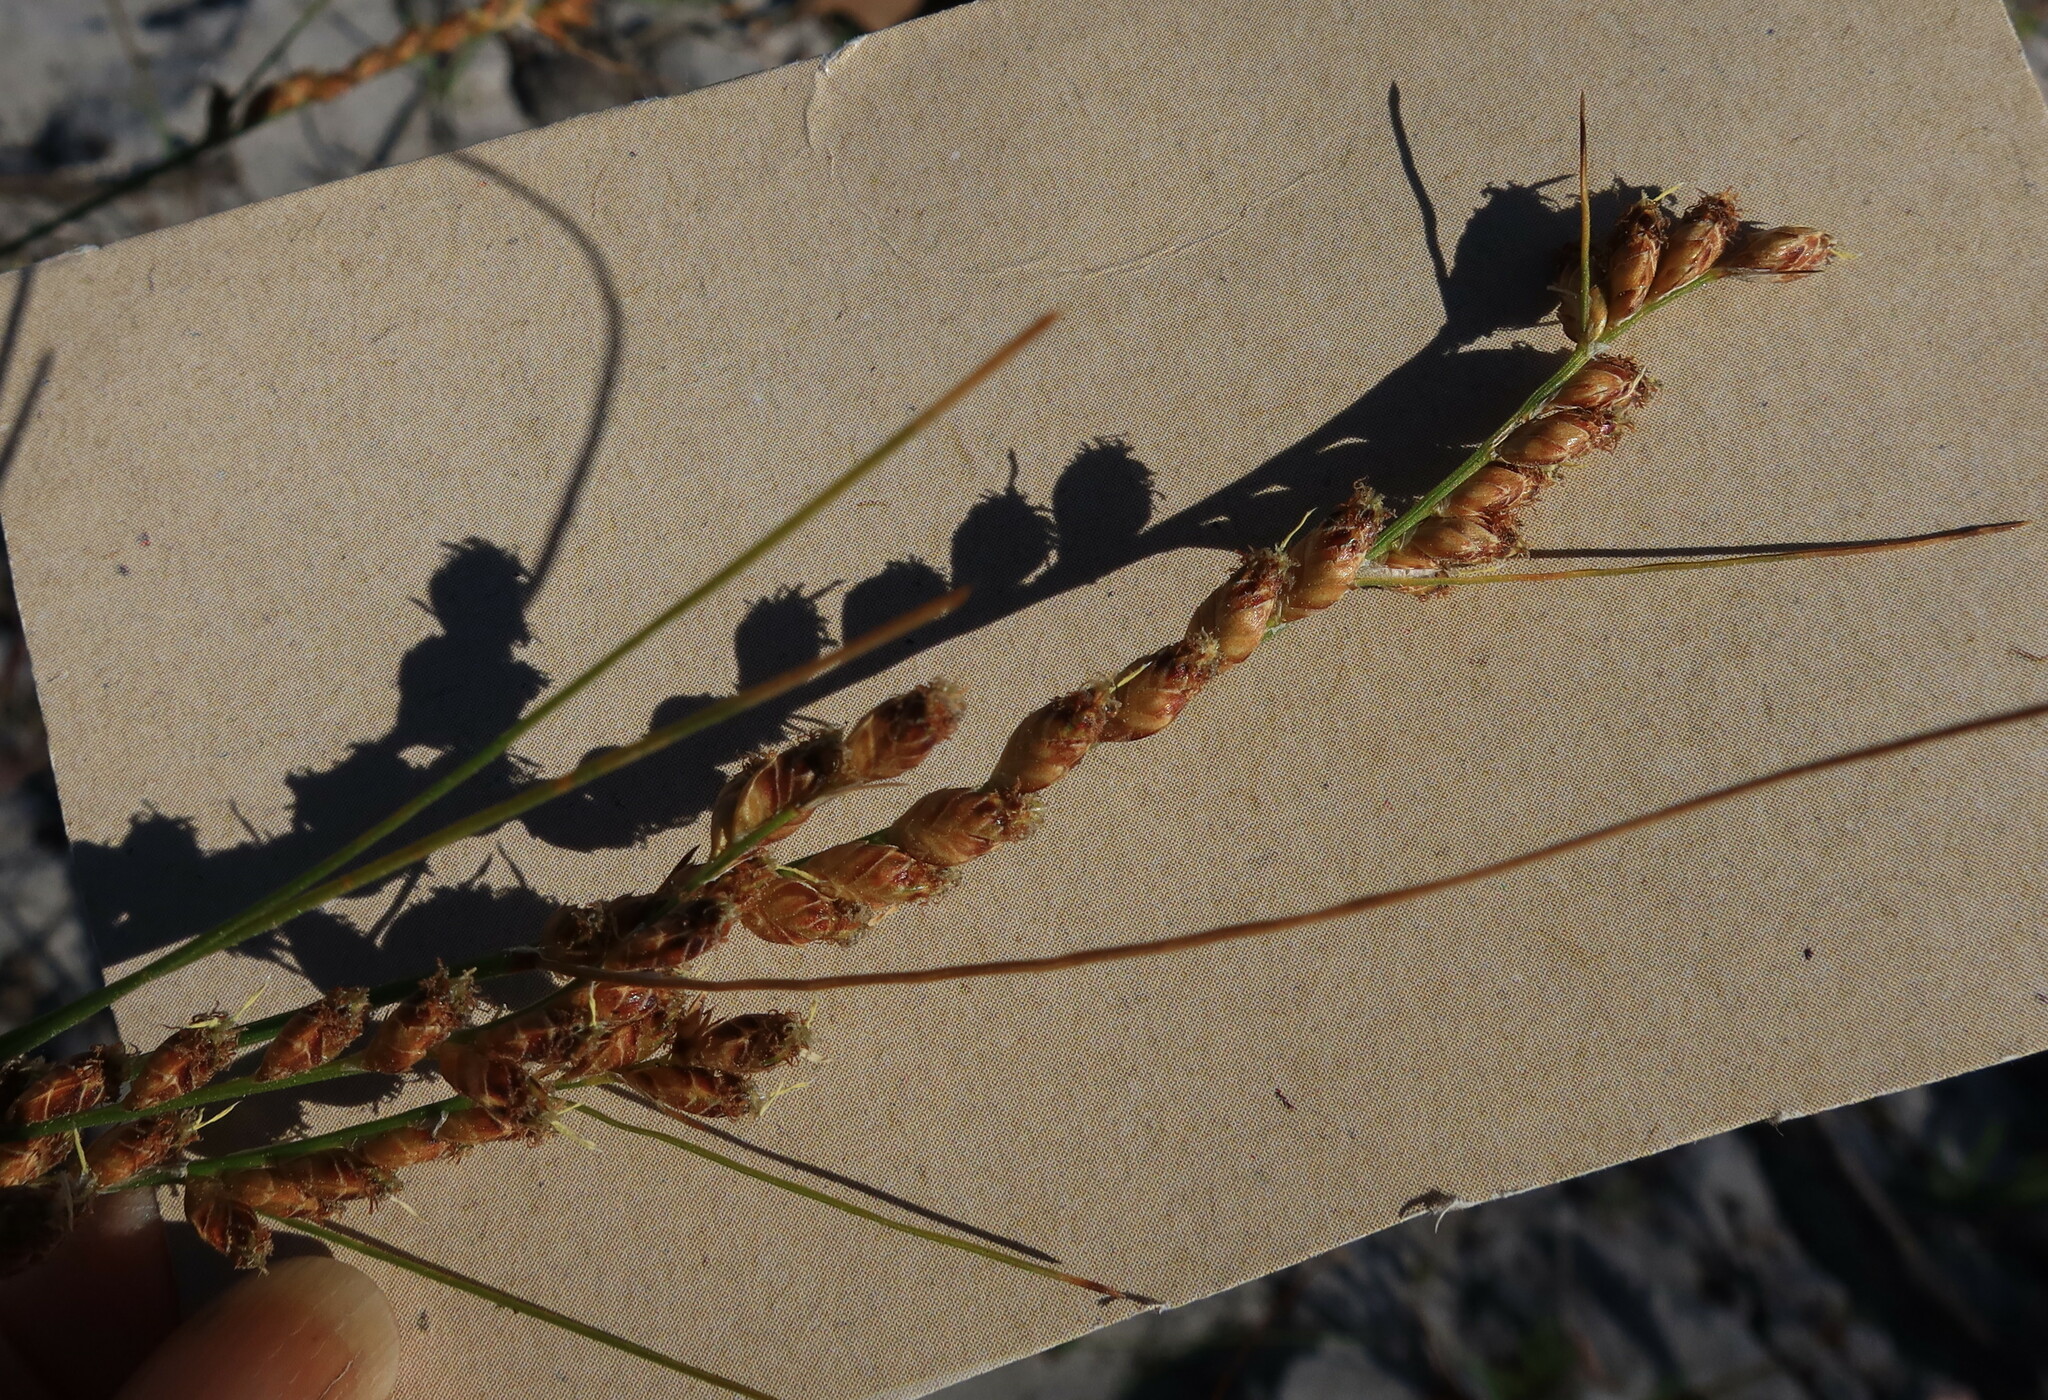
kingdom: Plantae
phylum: Tracheophyta
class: Liliopsida
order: Poales
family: Cyperaceae
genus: Ficinia
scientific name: Ficinia secunda
